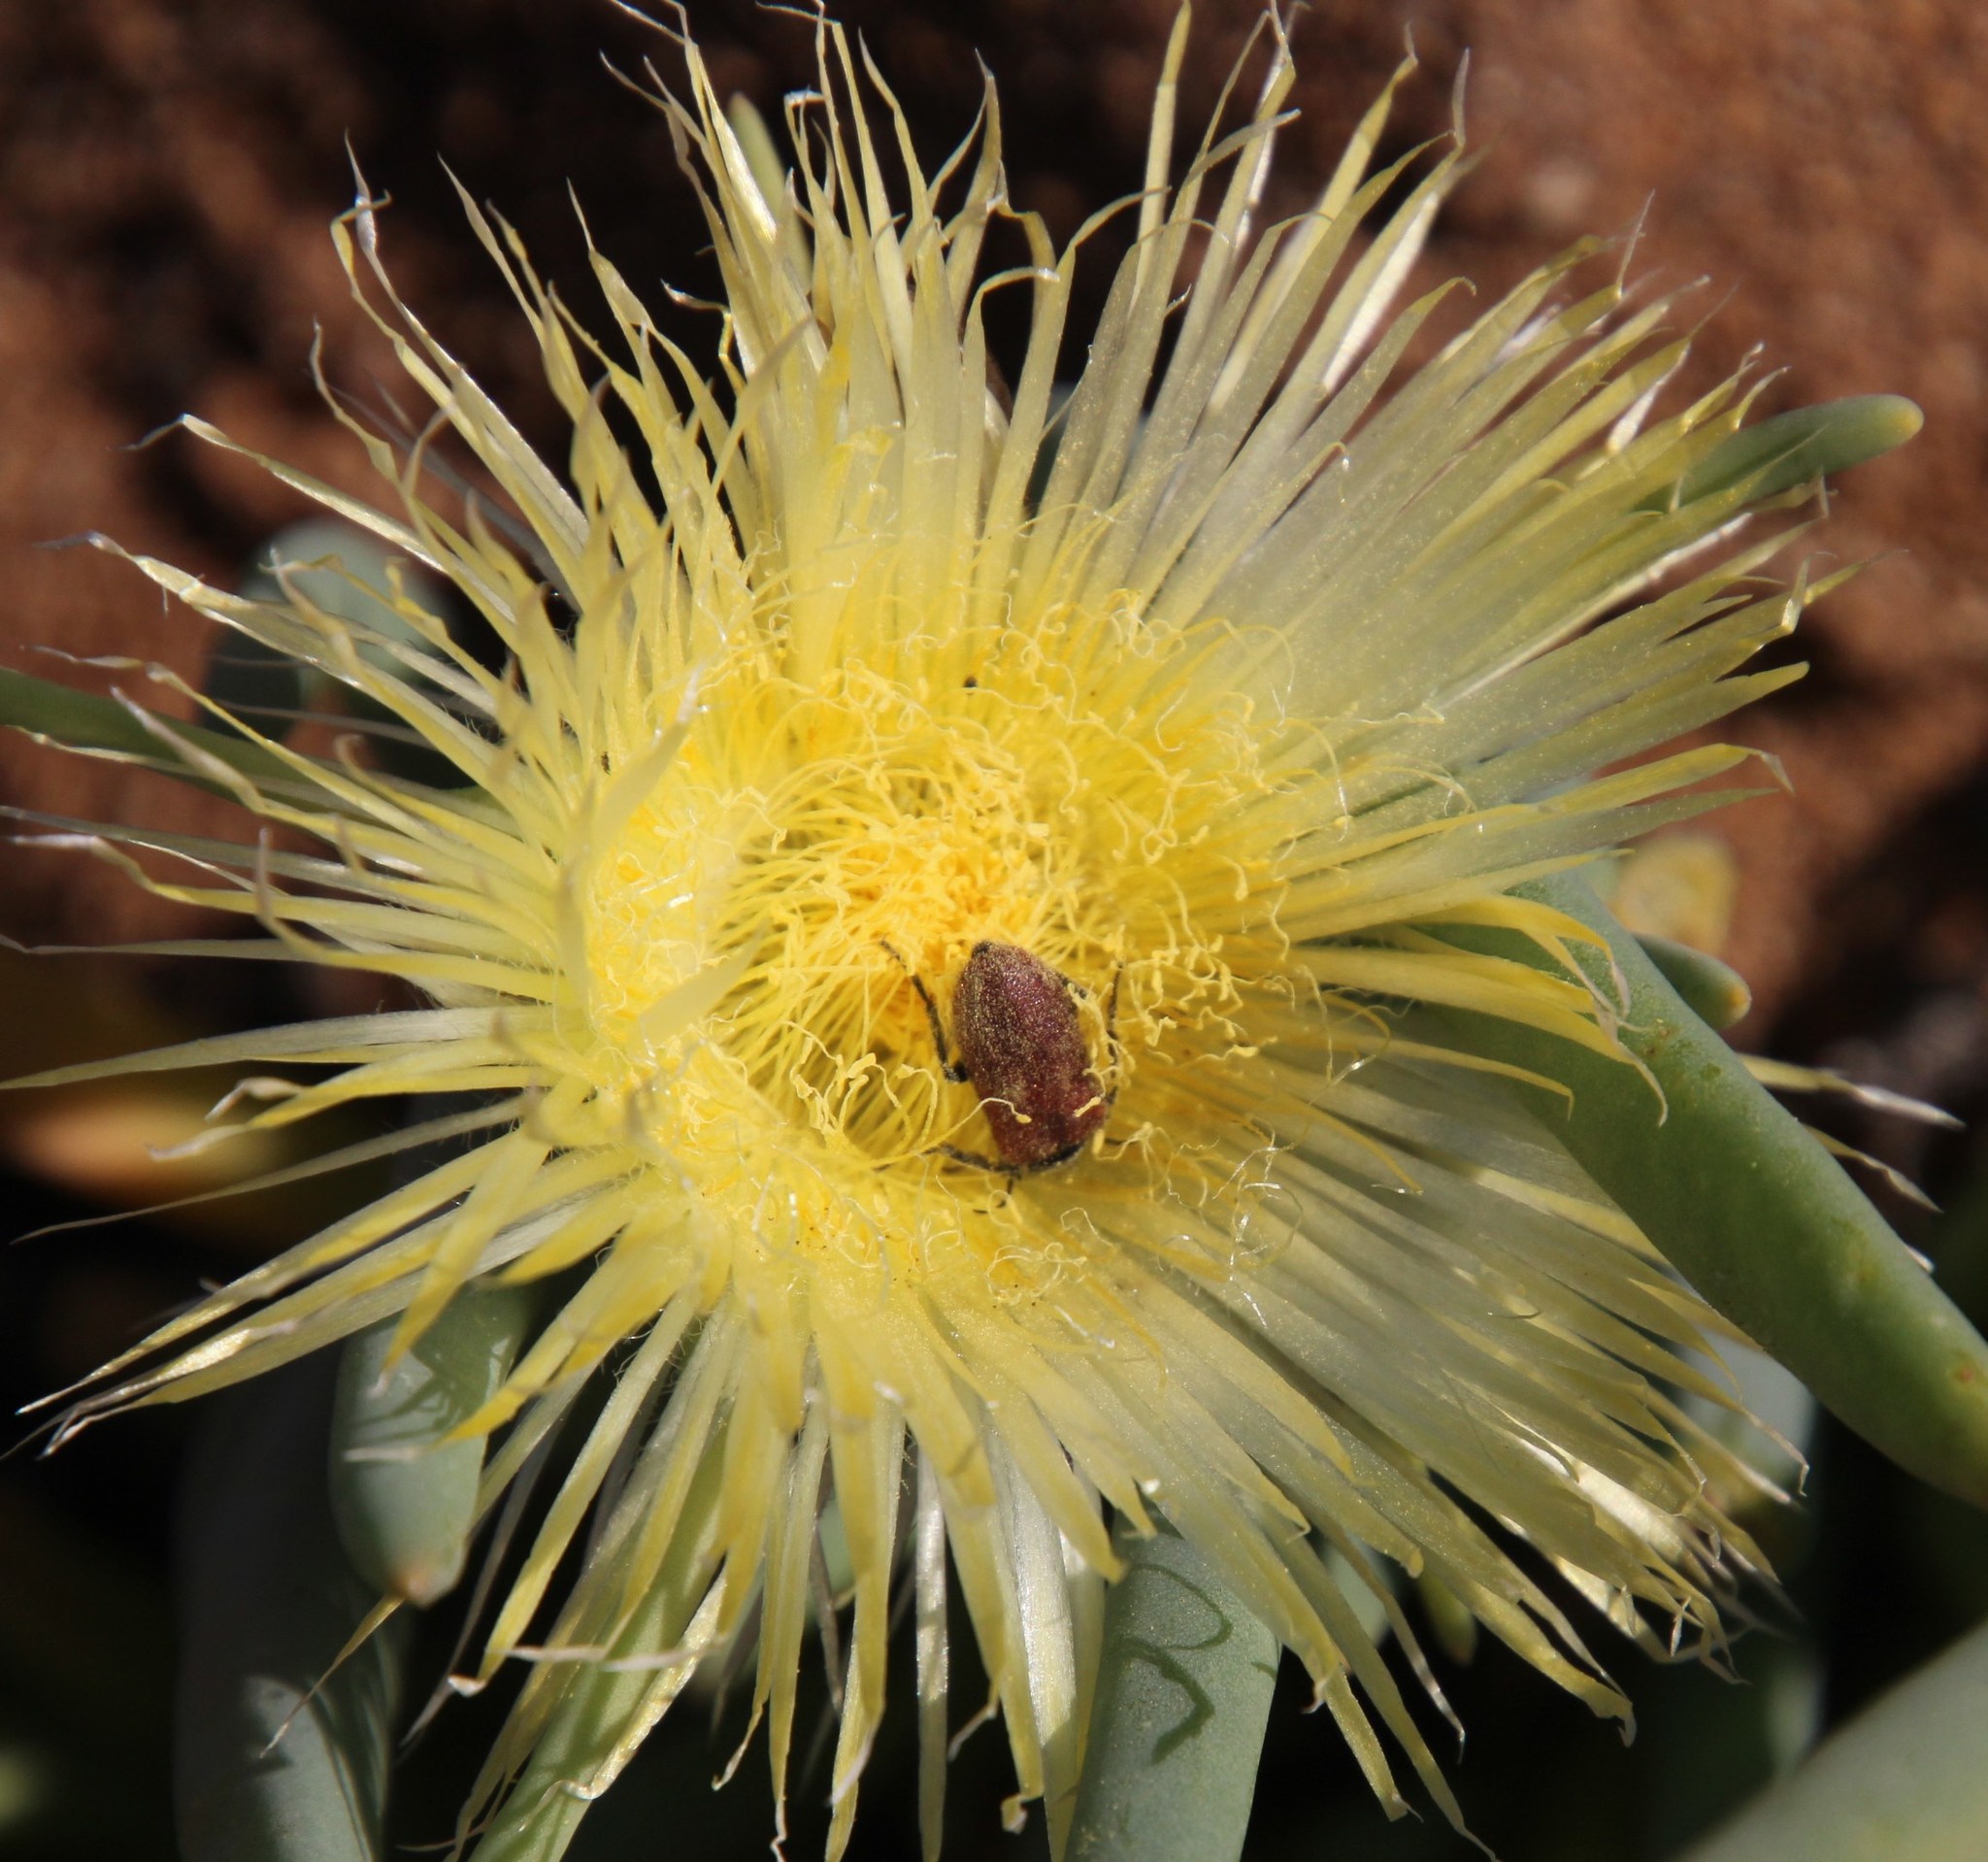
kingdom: Plantae
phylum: Tracheophyta
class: Magnoliopsida
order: Caryophyllales
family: Aizoaceae
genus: Conicosia
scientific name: Conicosia elongata
